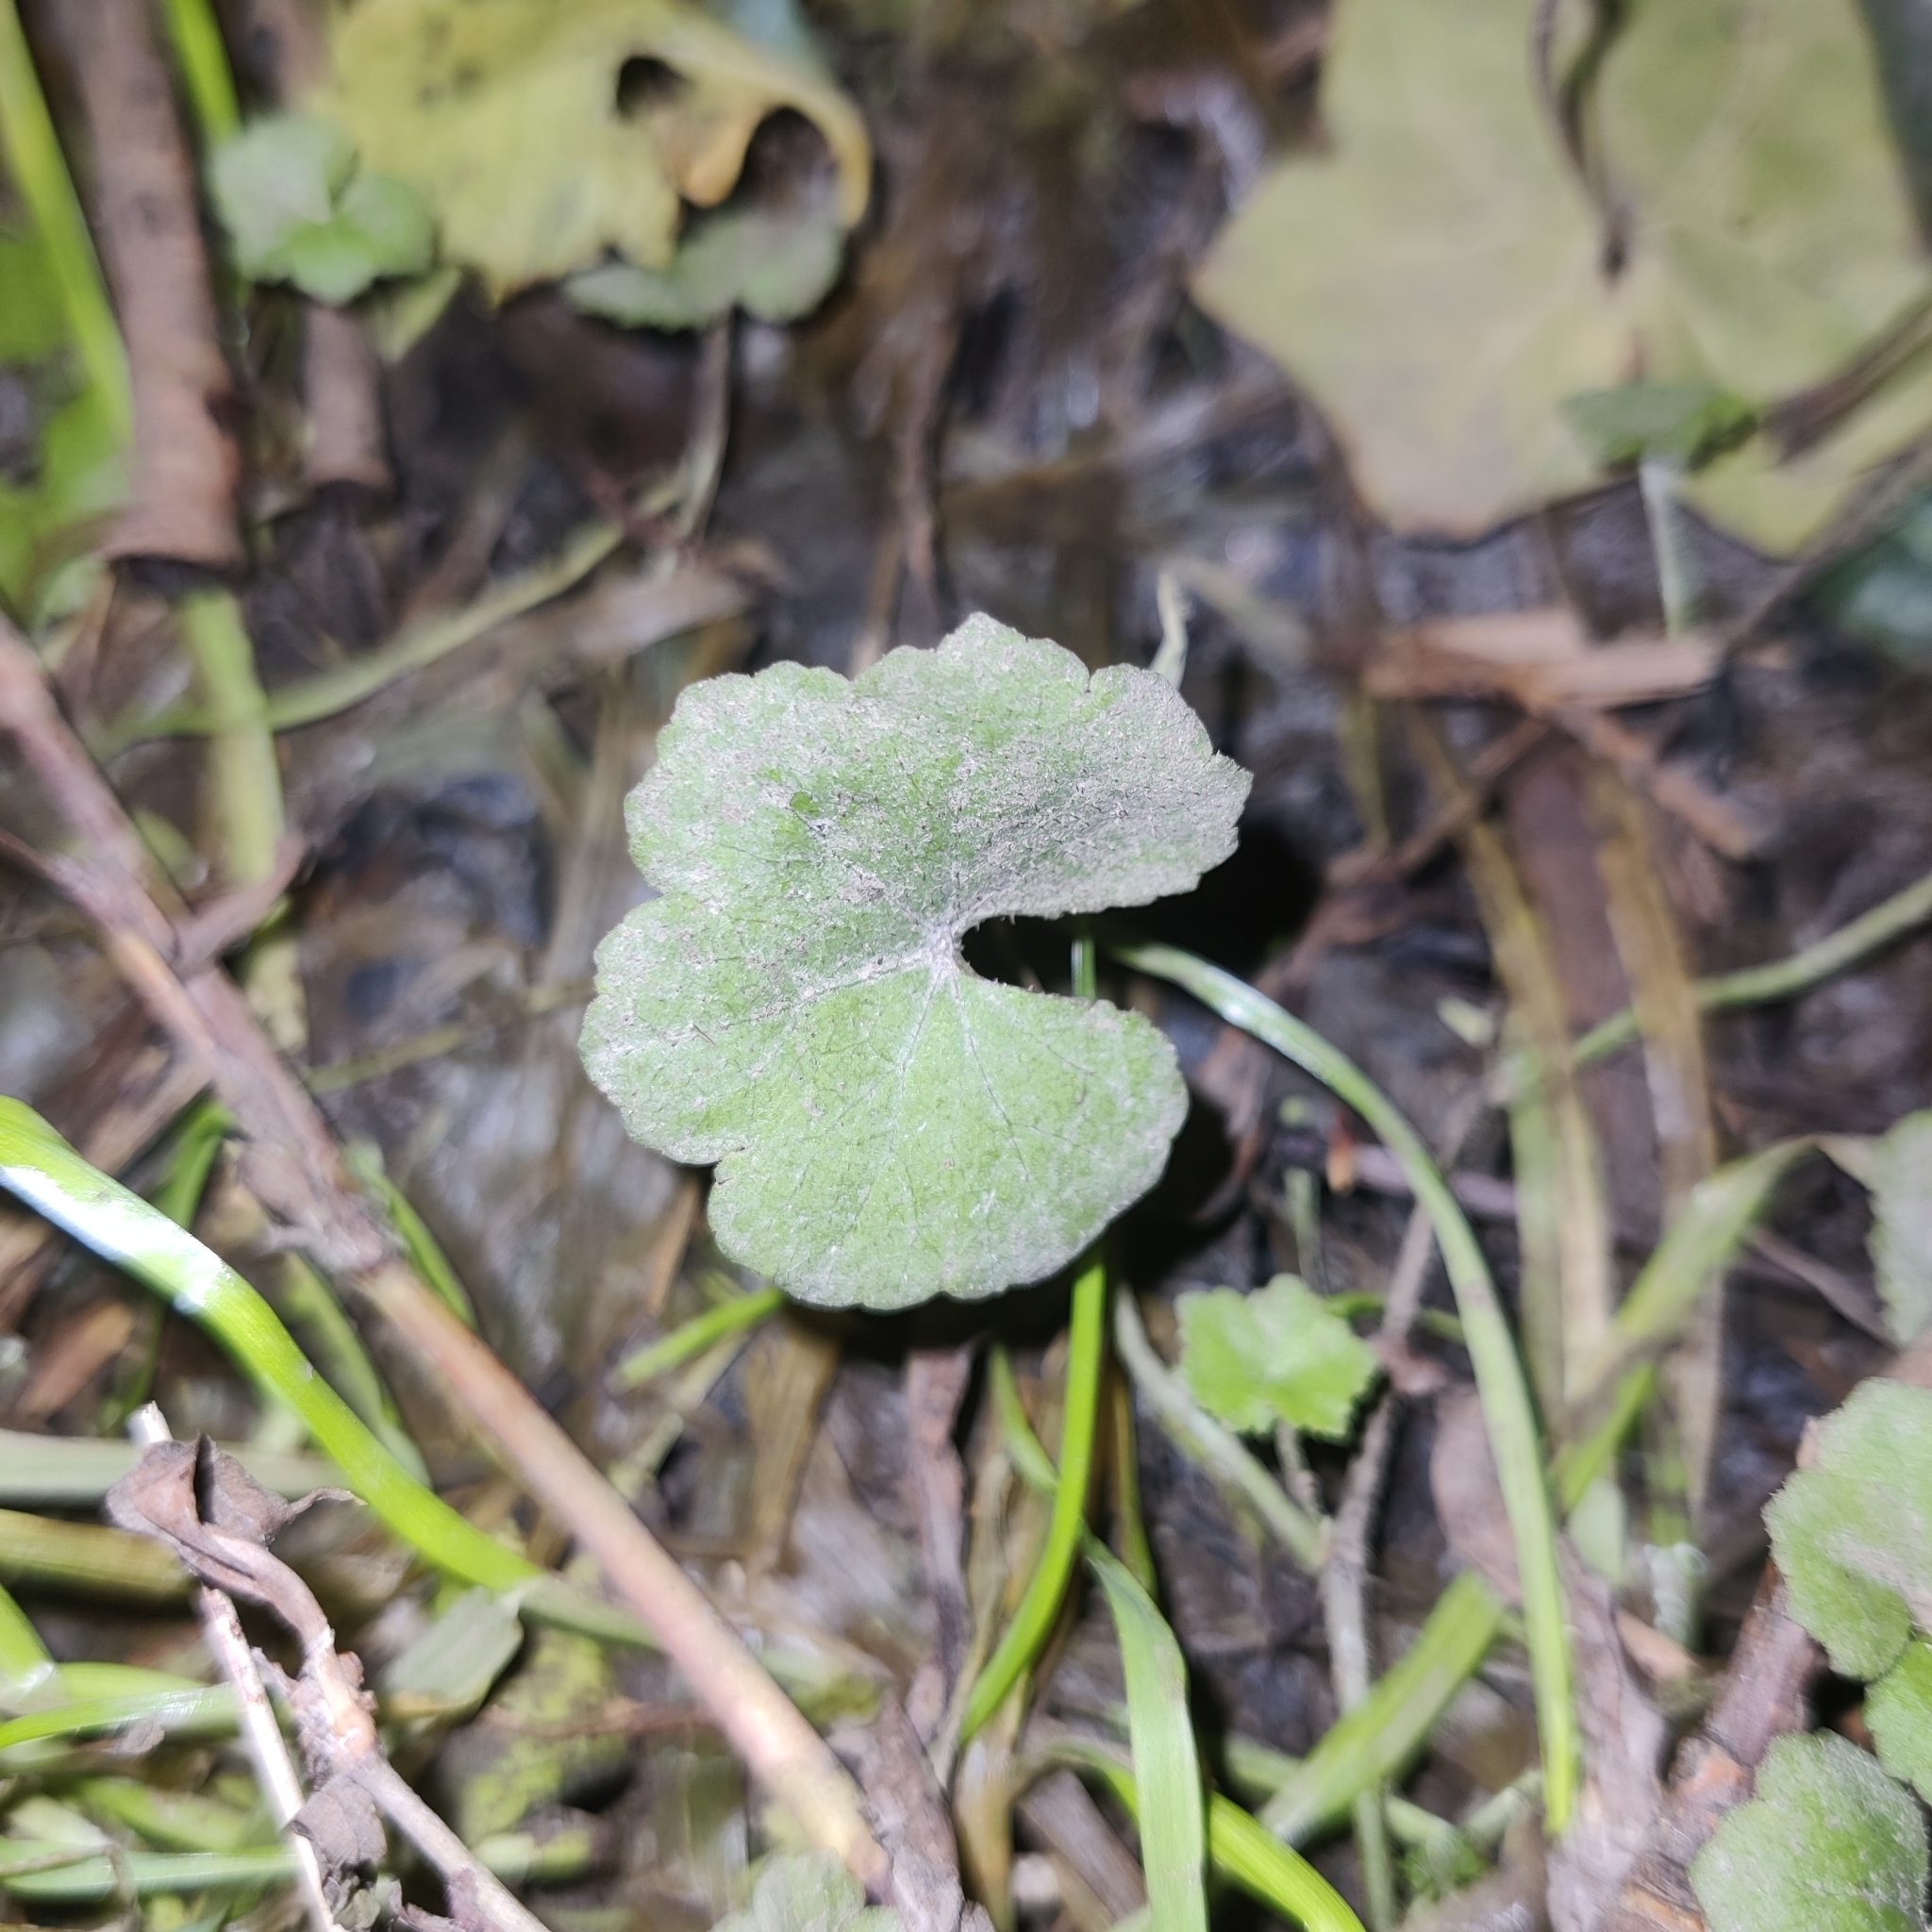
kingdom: Plantae
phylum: Tracheophyta
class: Magnoliopsida
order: Apiales
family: Araliaceae
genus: Hydrocotyle
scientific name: Hydrocotyle novae-zeelandiae
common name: New zealand pennywort
